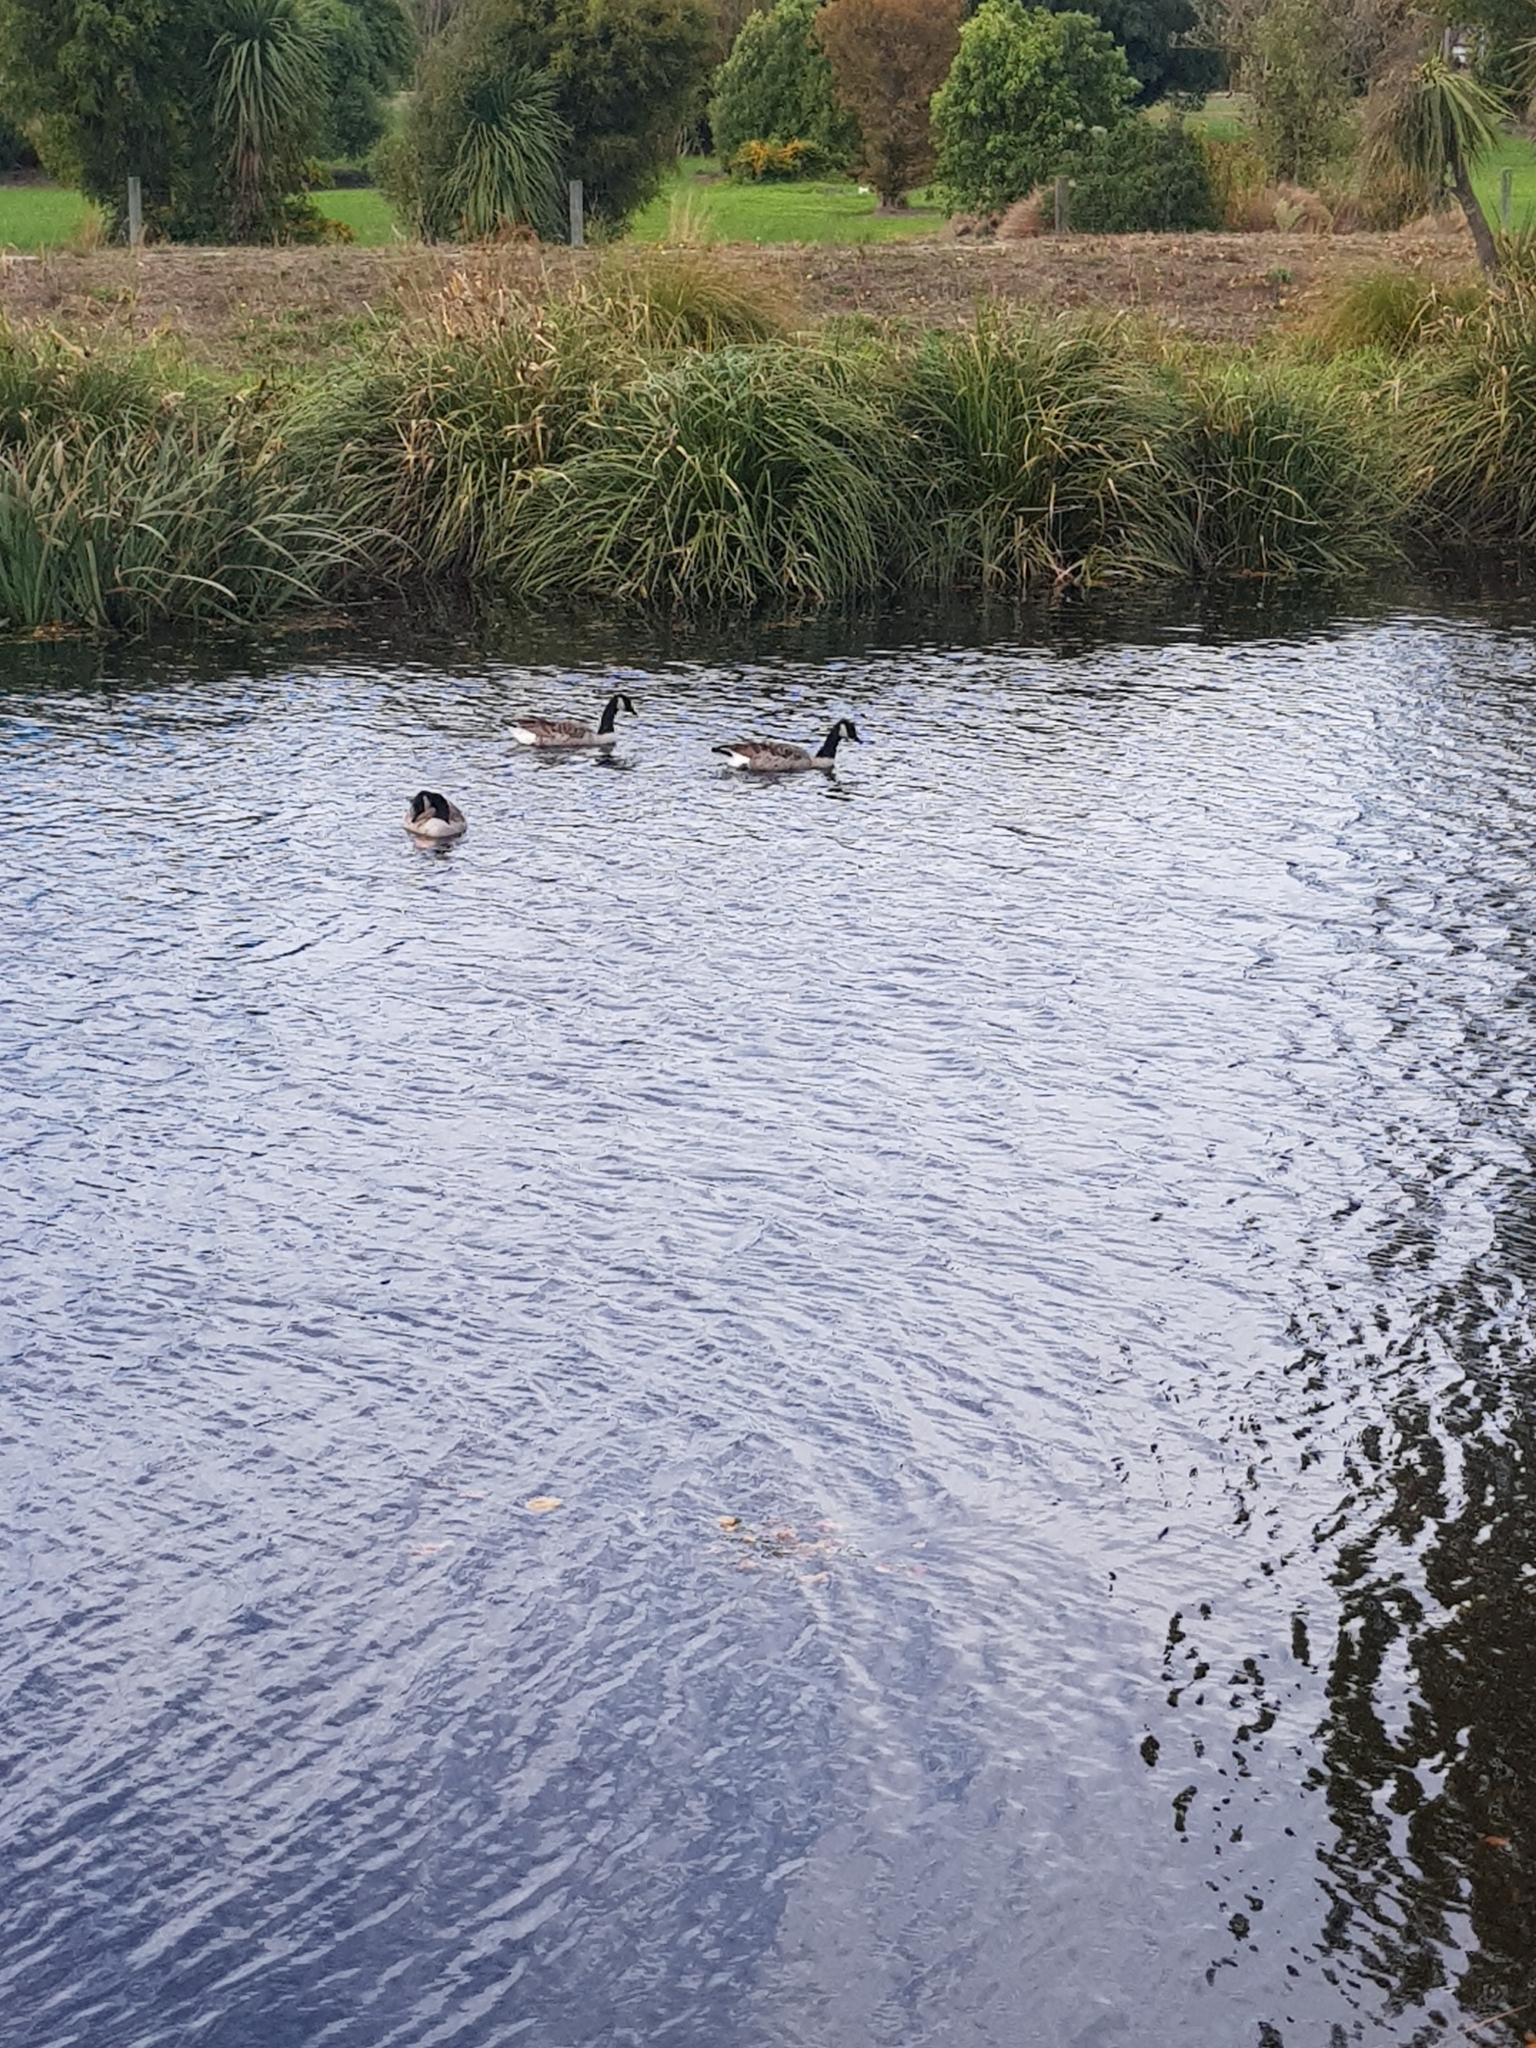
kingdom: Animalia
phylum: Chordata
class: Aves
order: Anseriformes
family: Anatidae
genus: Branta
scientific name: Branta canadensis
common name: Canada goose
